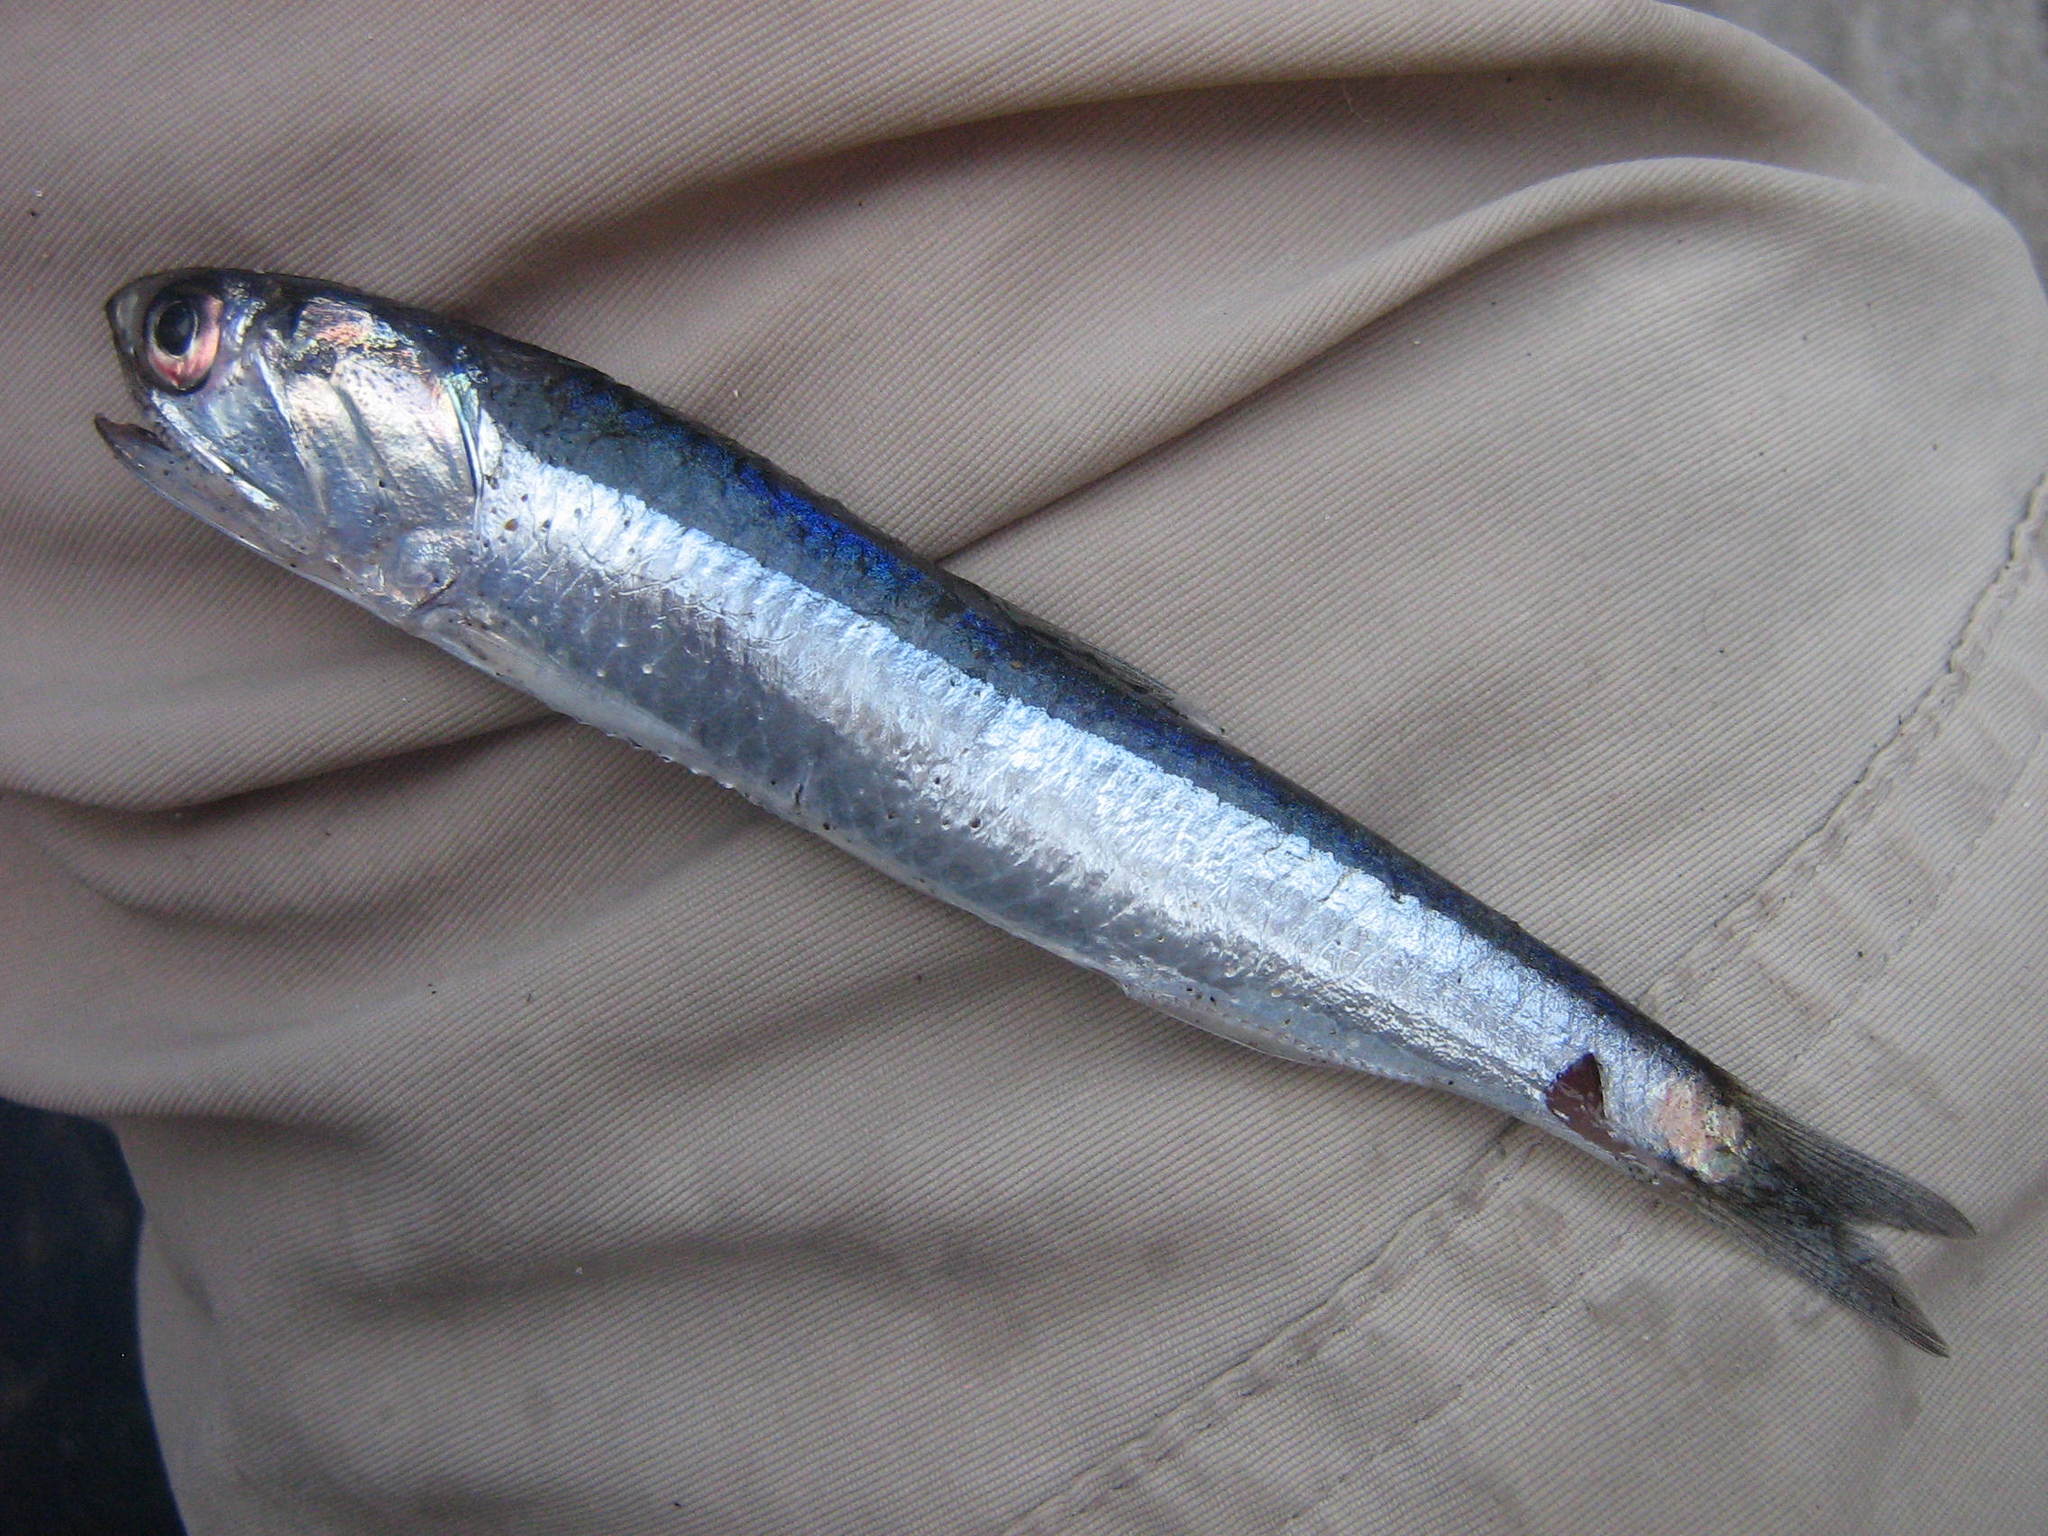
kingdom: Animalia
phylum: Chordata
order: Clupeiformes
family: Engraulidae
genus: Engraulis
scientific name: Engraulis ringens
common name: Peruvian anchovy
